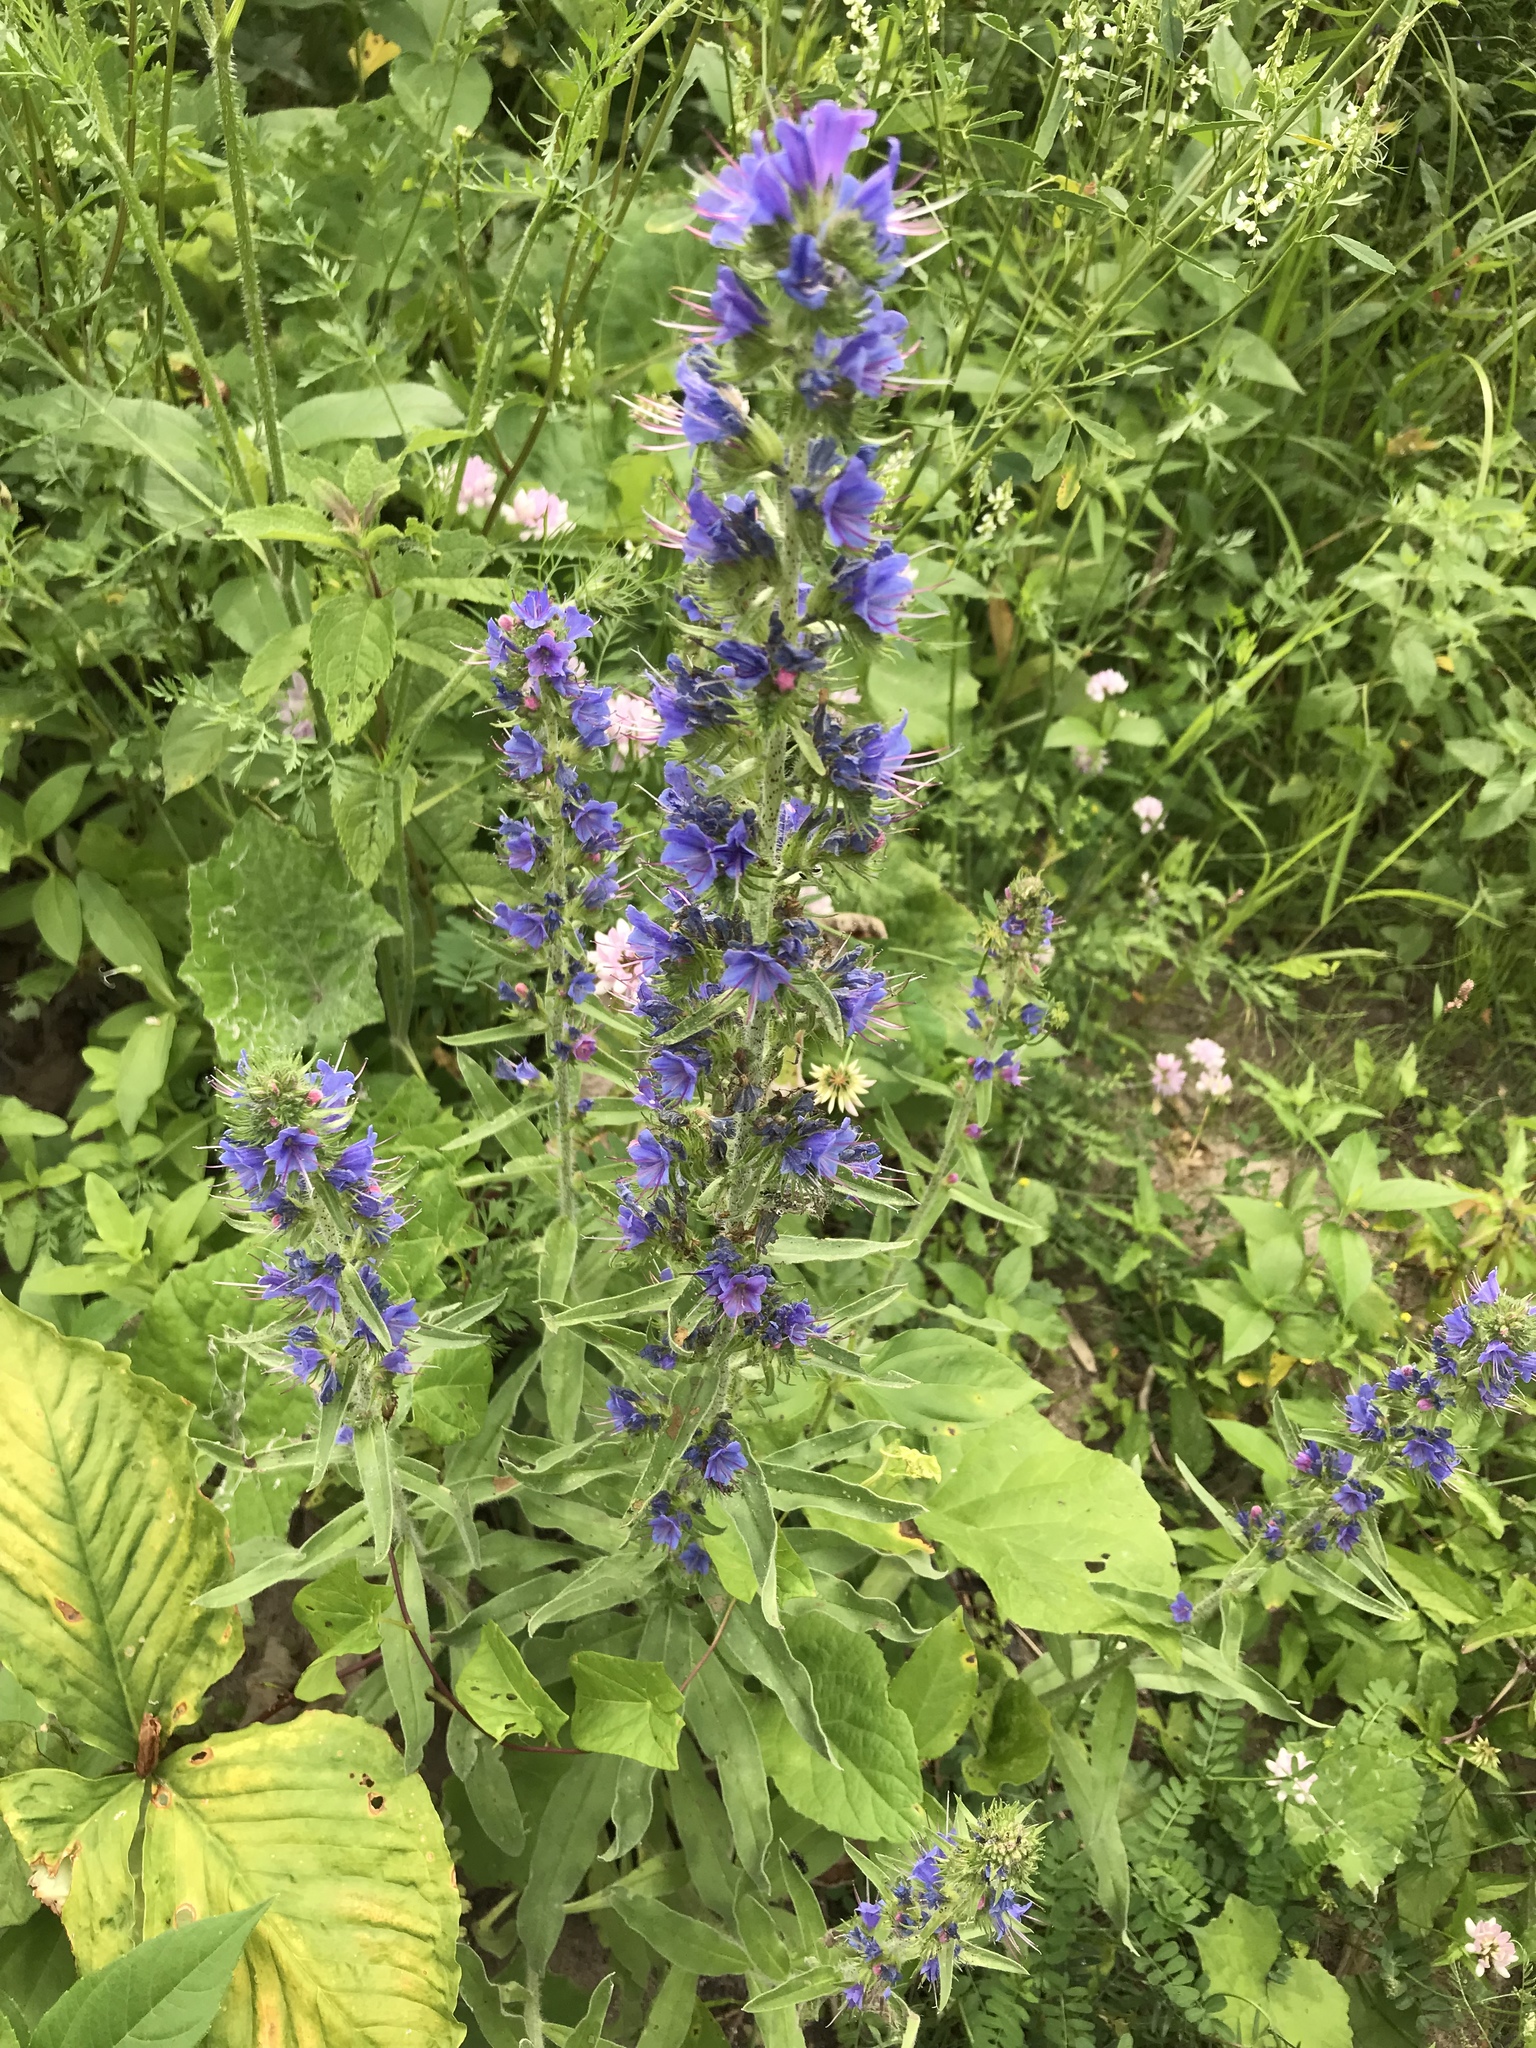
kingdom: Plantae
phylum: Tracheophyta
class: Magnoliopsida
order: Boraginales
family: Boraginaceae
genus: Echium
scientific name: Echium vulgare
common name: Common viper's bugloss
